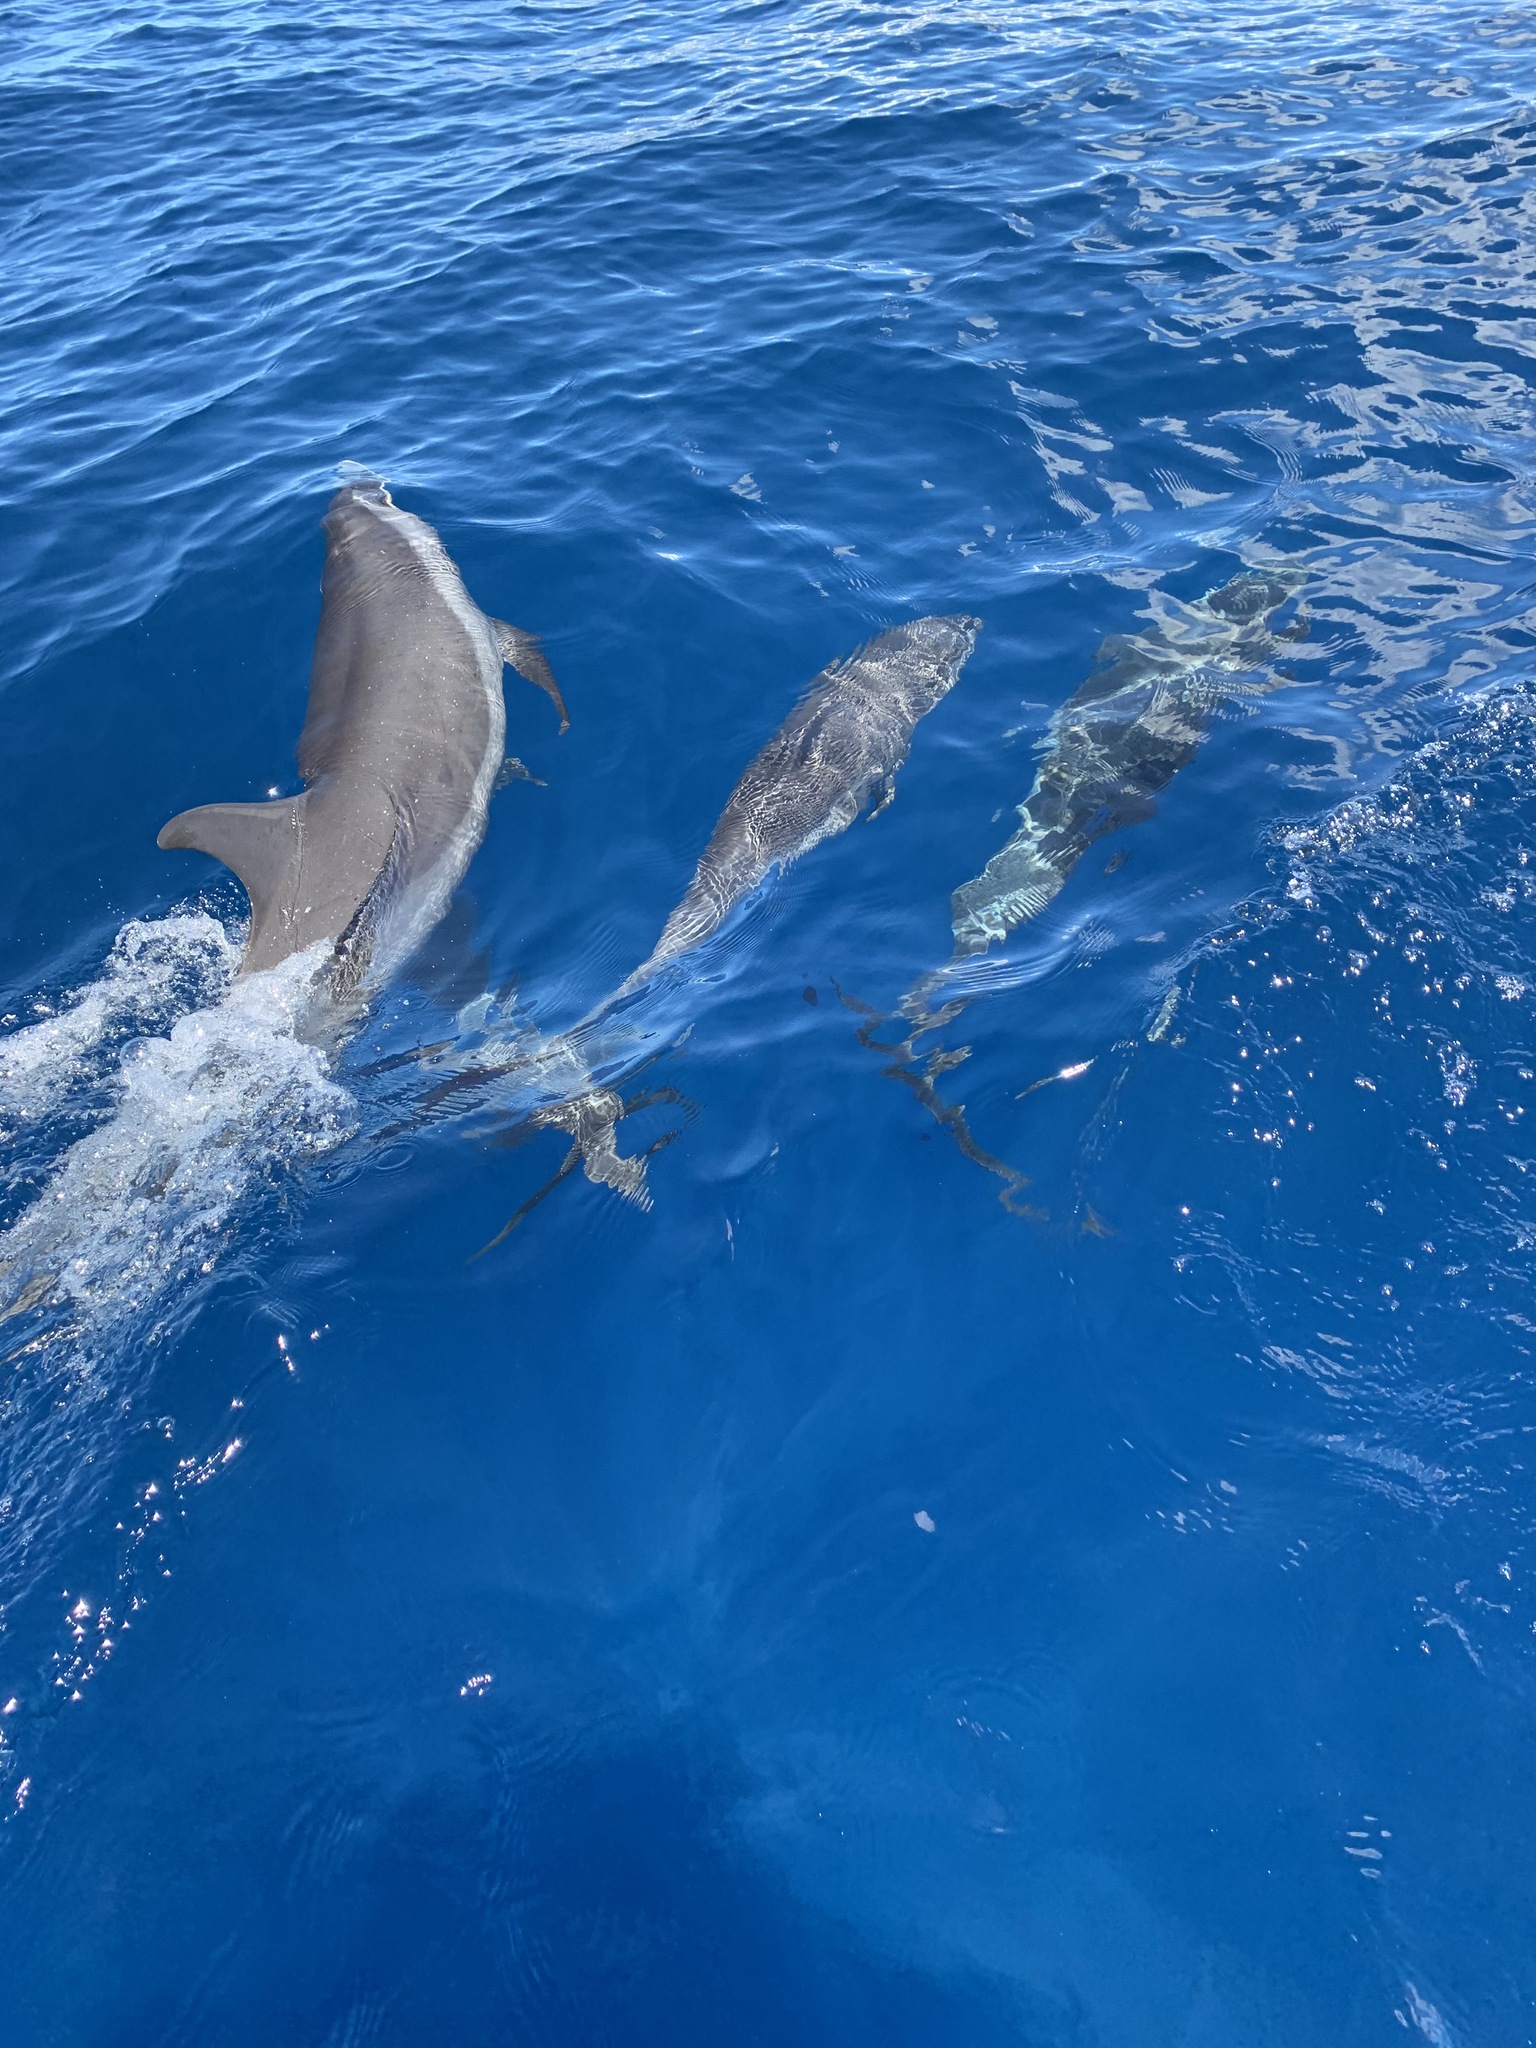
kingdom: Animalia
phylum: Chordata
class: Mammalia
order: Cetacea
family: Delphinidae
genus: Stenella
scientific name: Stenella attenuata
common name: Pantropical spotted dolphin
